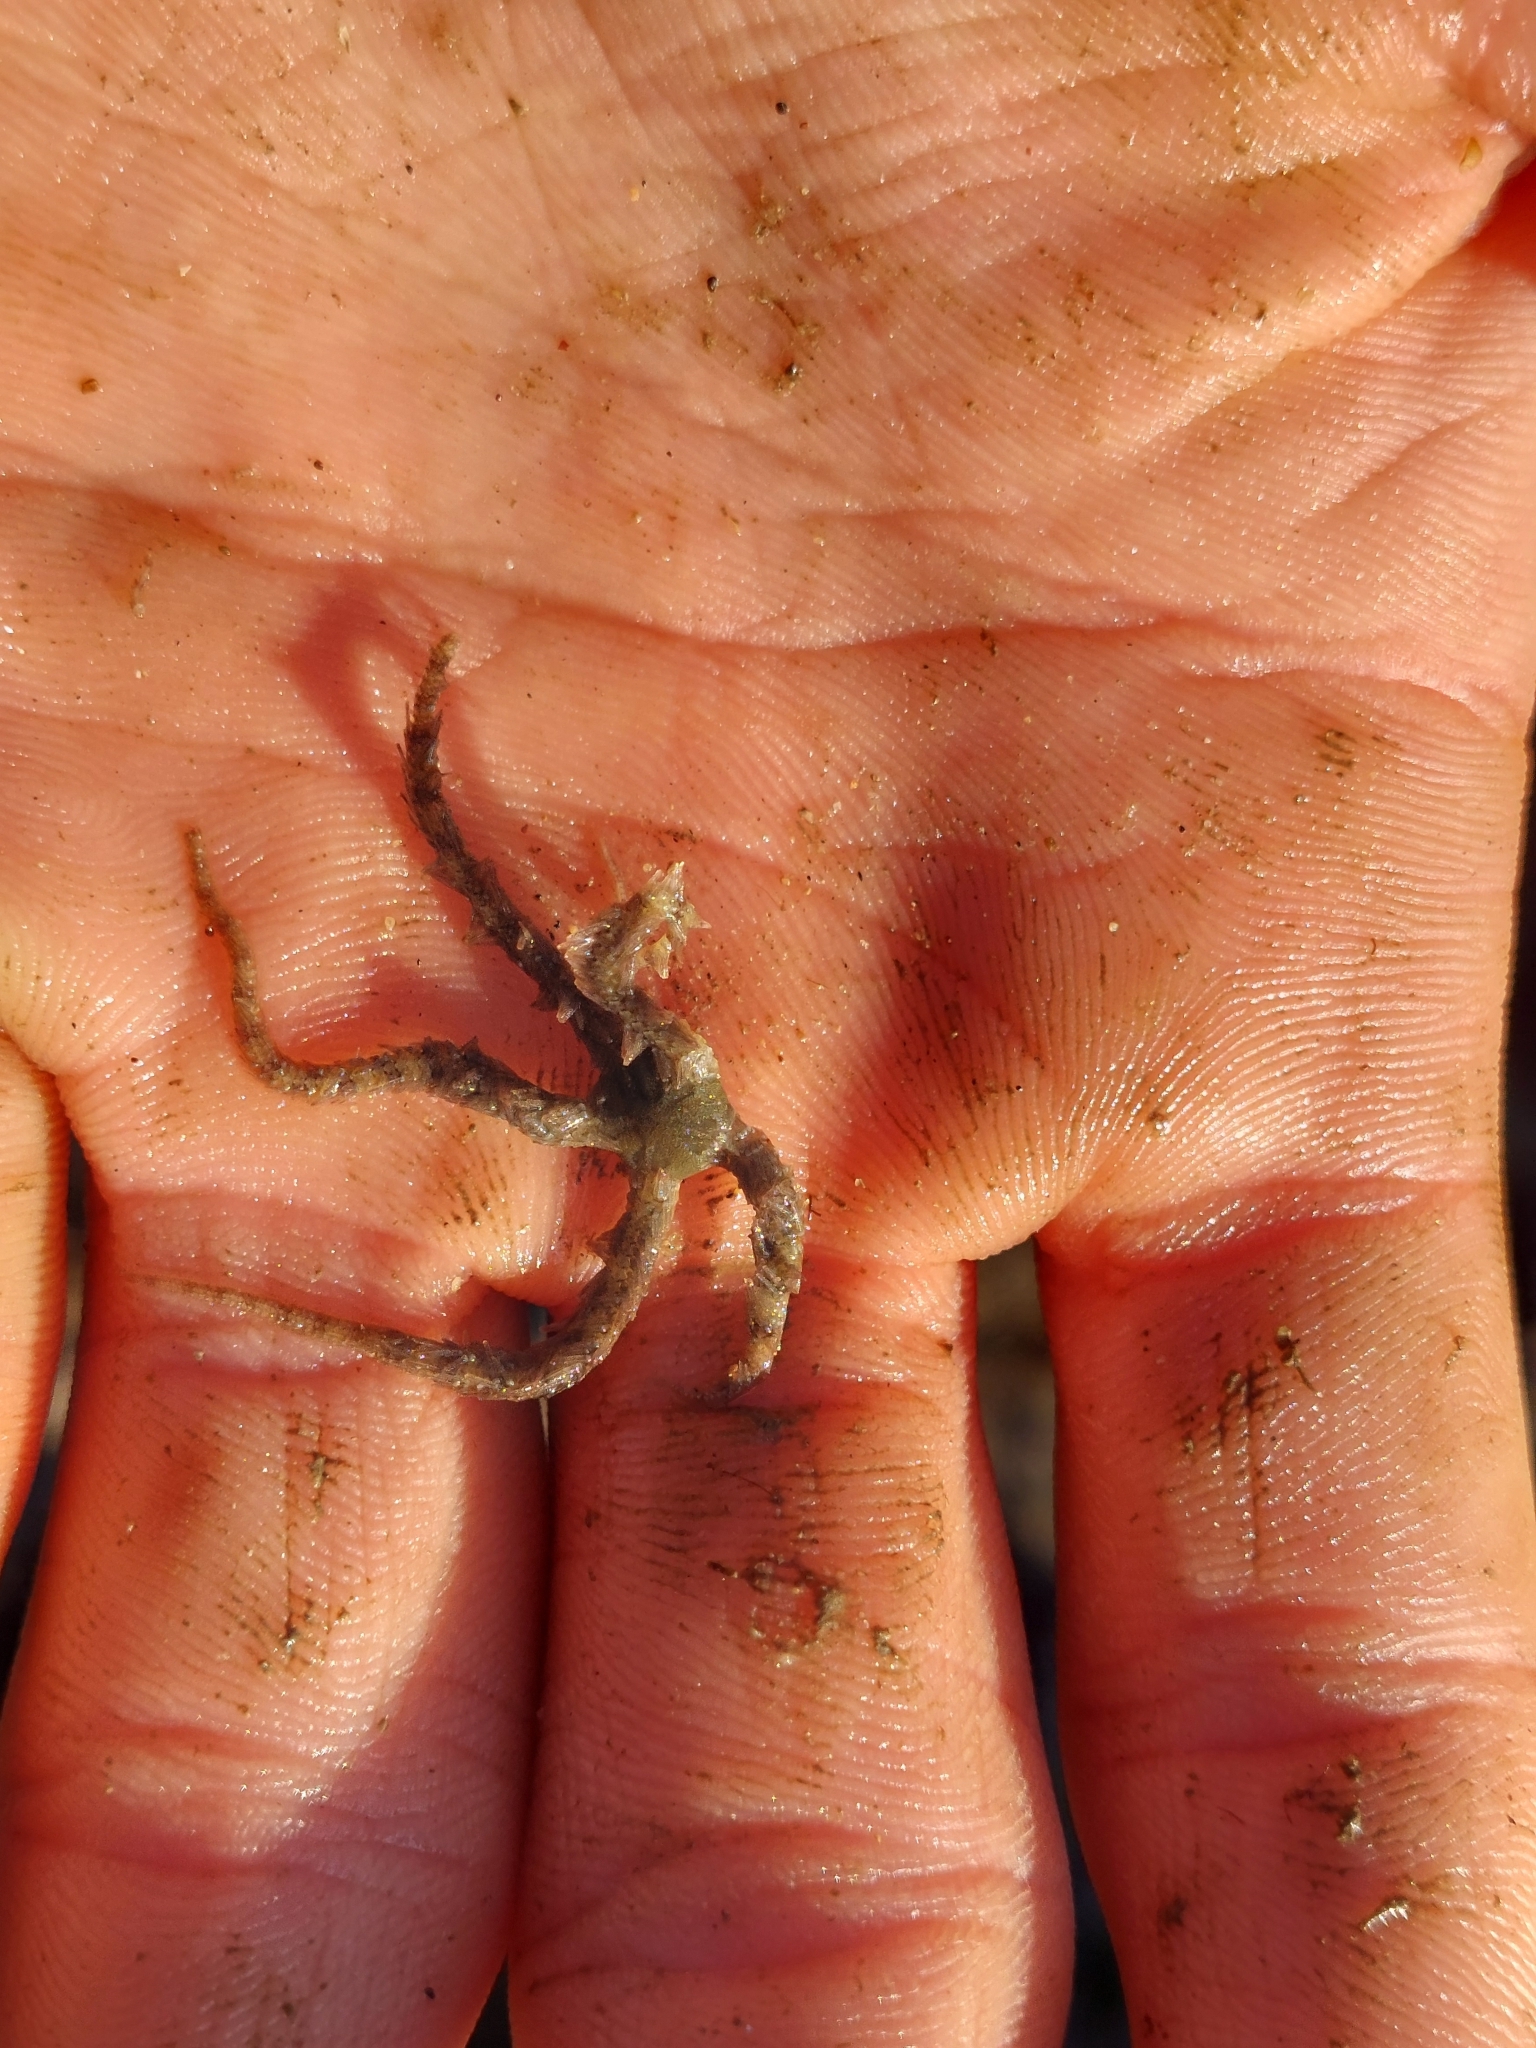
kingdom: Animalia
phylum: Echinodermata
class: Ophiuroidea
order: Amphilepidida
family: Ophiotrichidae
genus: Ophiothrix
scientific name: Ophiothrix fragilis
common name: Common brittlestar
